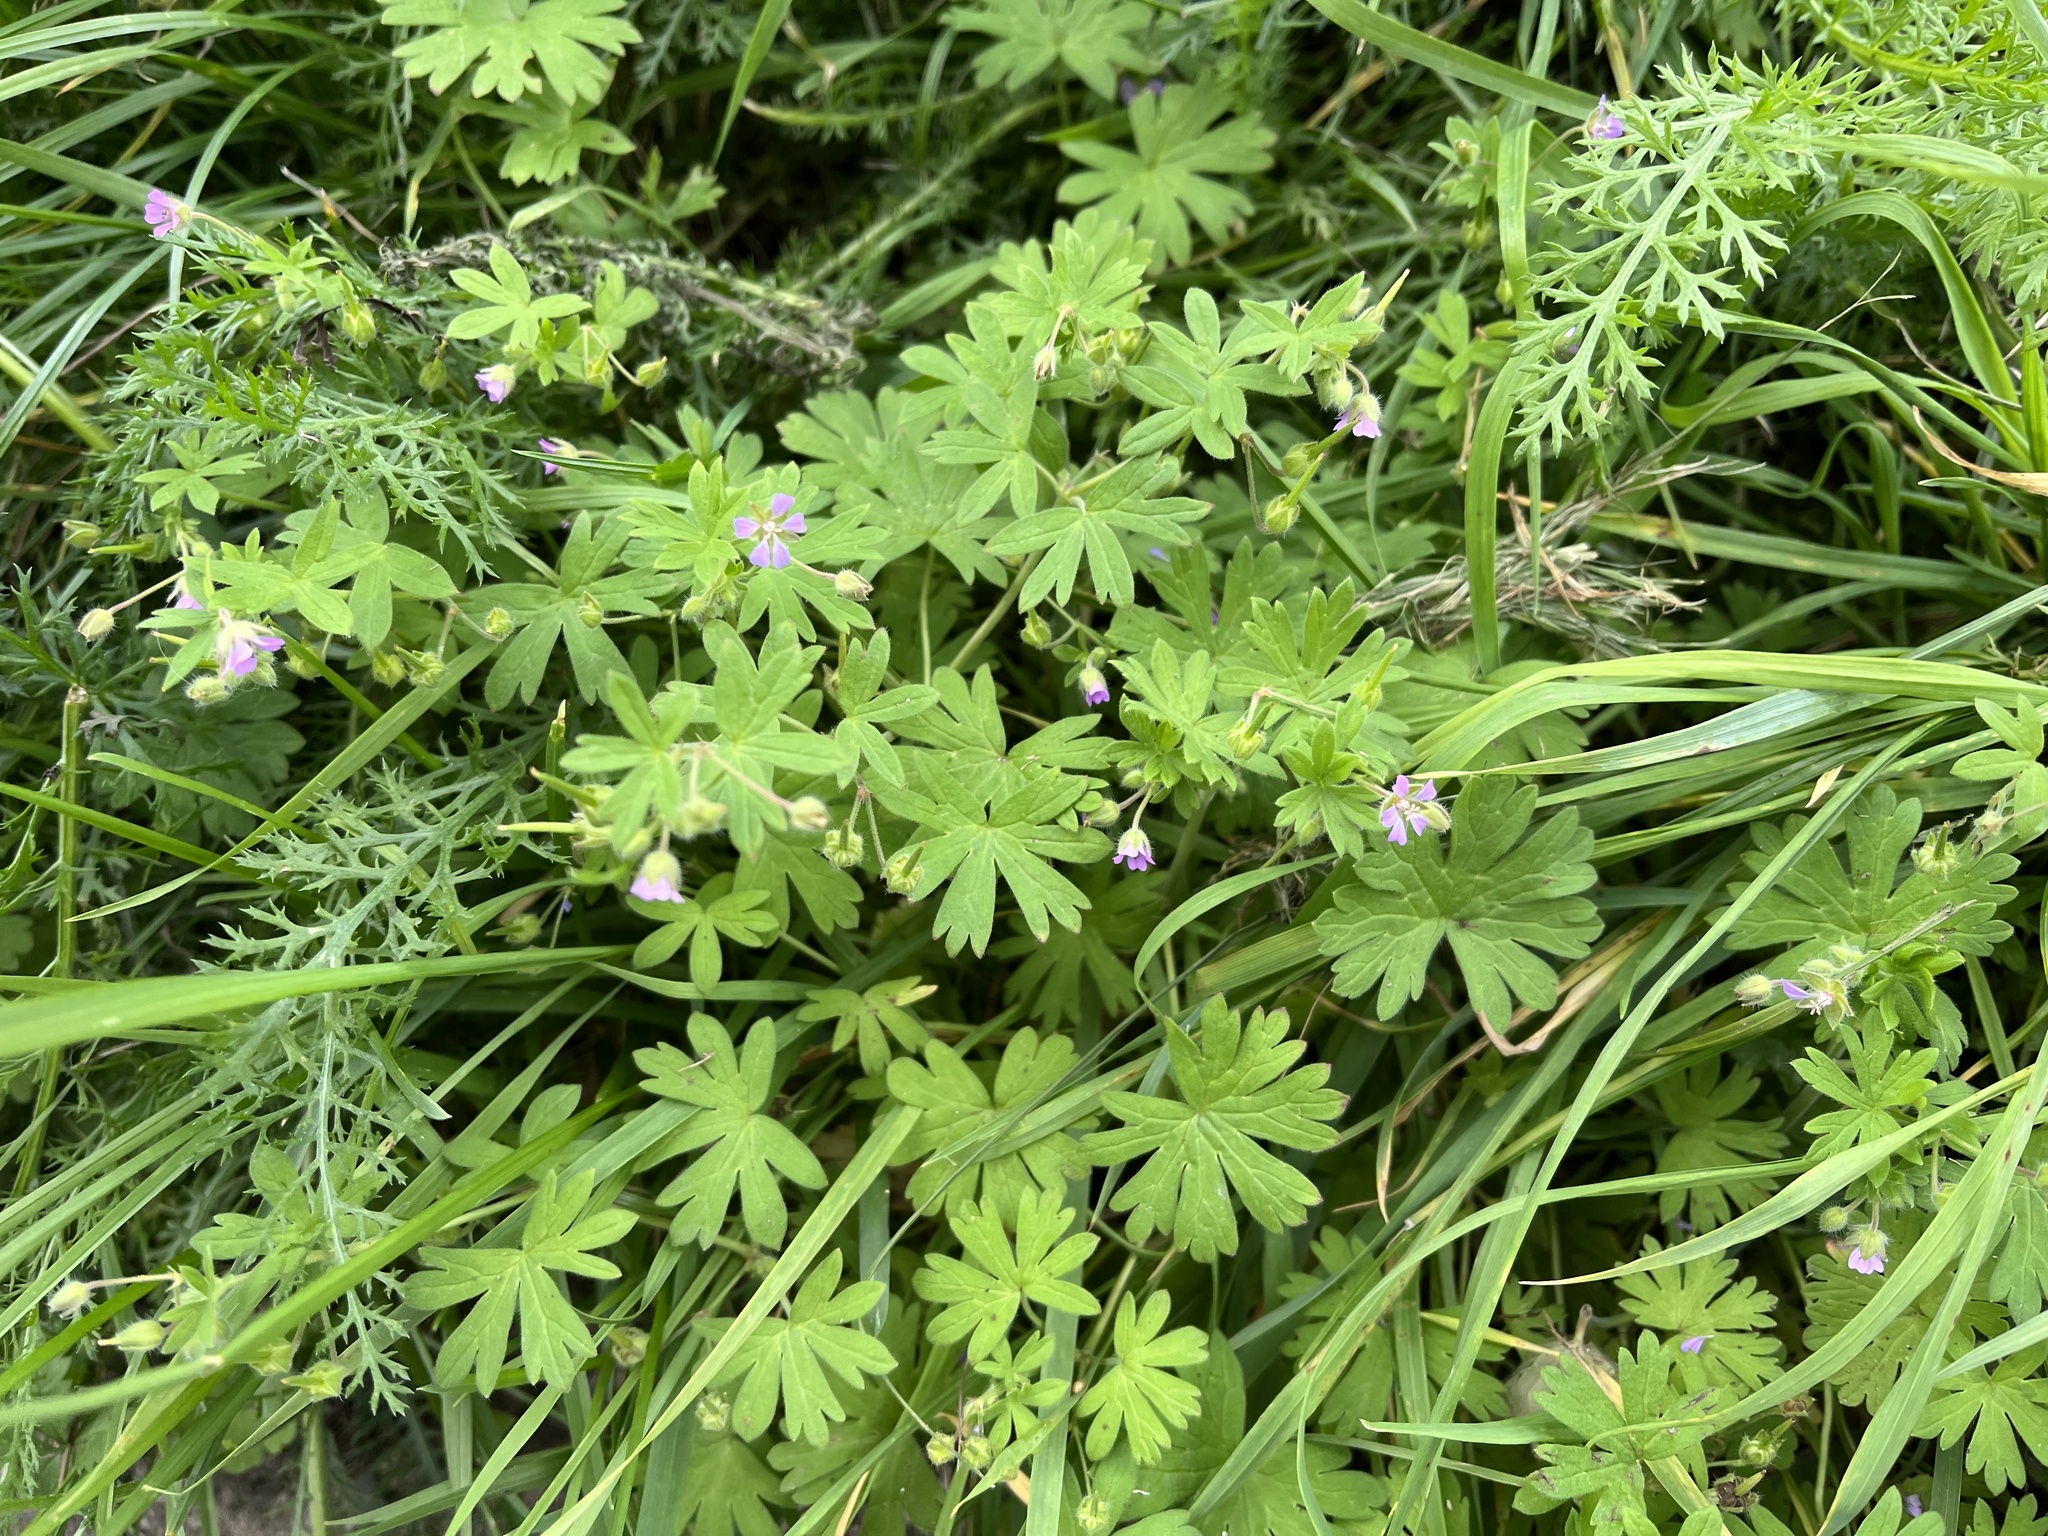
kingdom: Plantae
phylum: Tracheophyta
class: Magnoliopsida
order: Geraniales
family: Geraniaceae
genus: Geranium
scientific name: Geranium pusillum
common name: Small geranium
